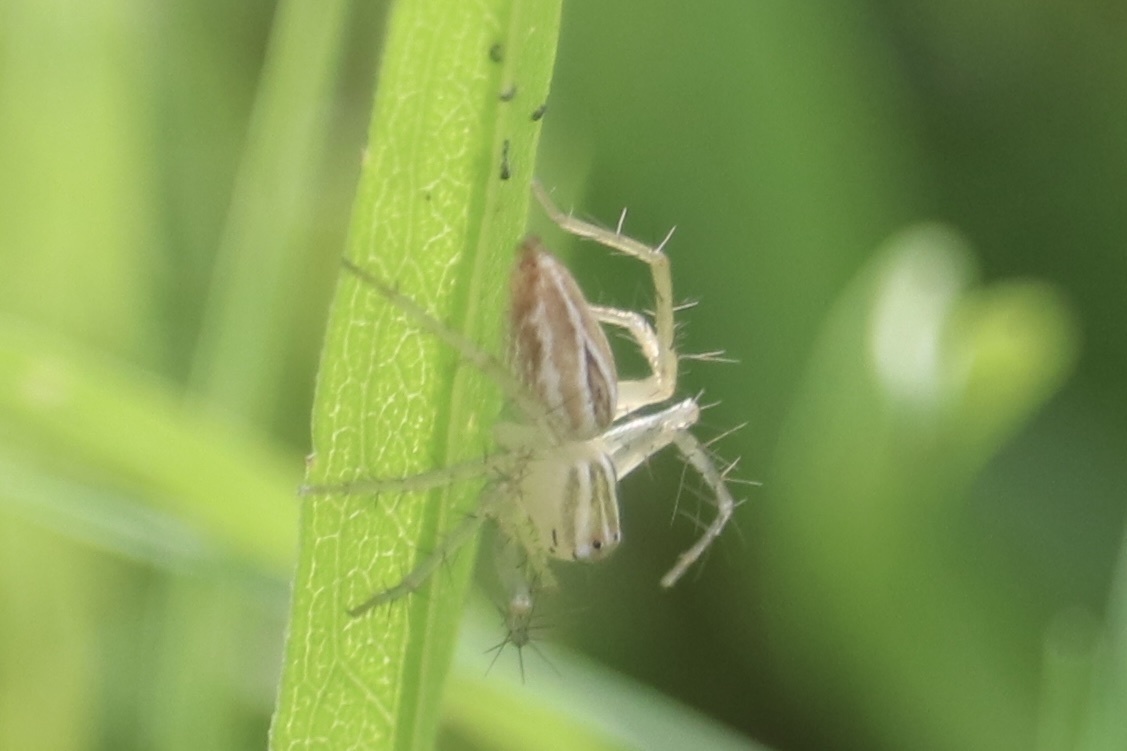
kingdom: Animalia
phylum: Arthropoda
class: Arachnida
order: Araneae
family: Oxyopidae
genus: Oxyopes
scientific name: Oxyopes salticus
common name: Lynx spiders
